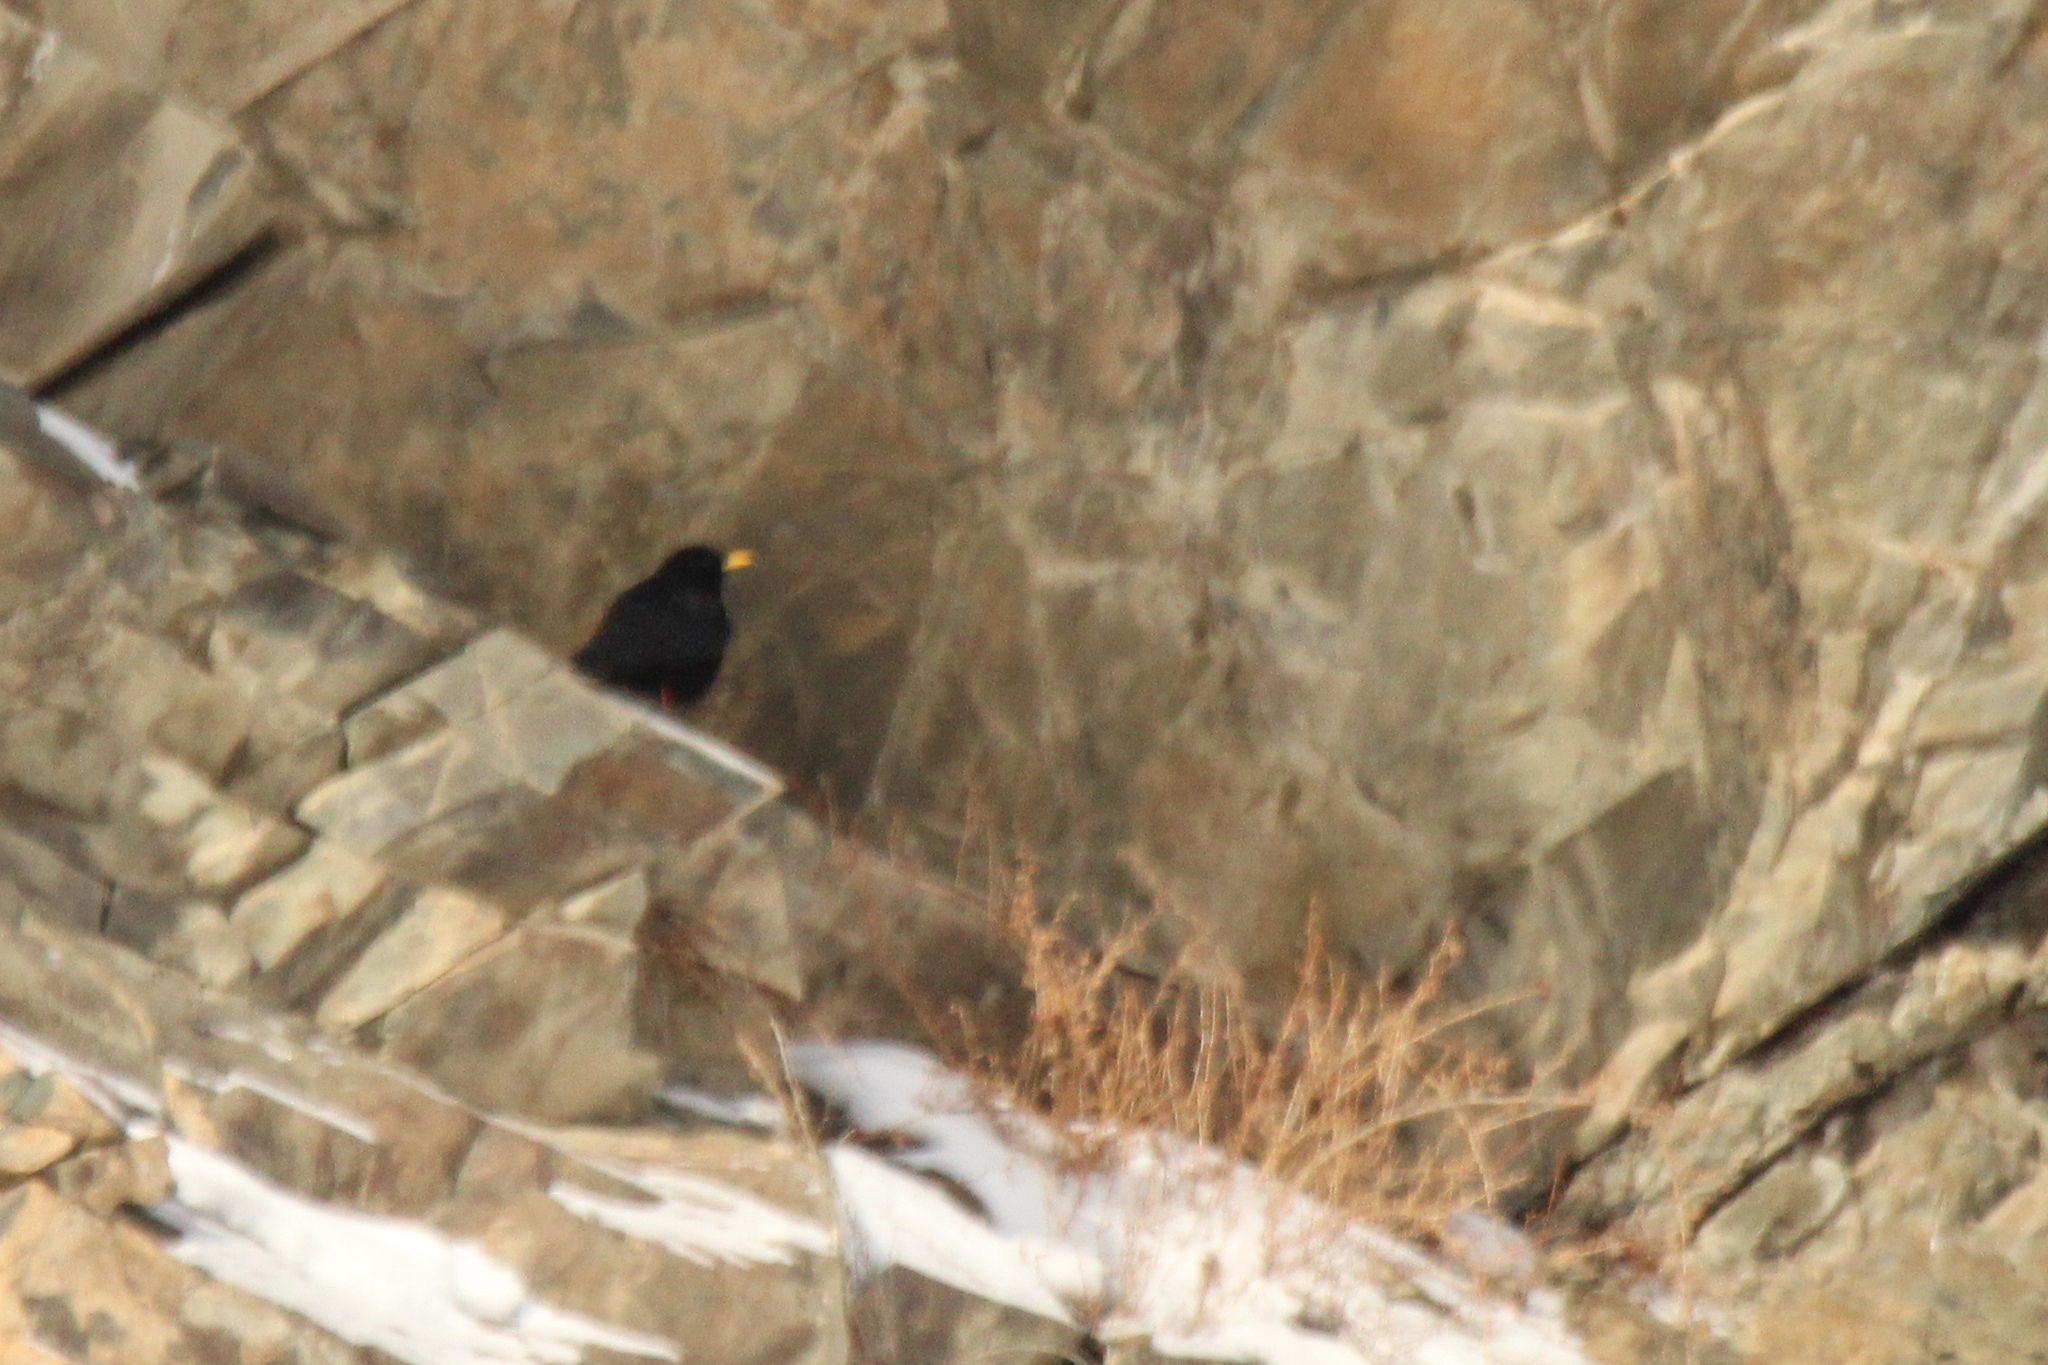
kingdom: Animalia
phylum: Chordata
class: Aves
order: Passeriformes
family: Corvidae
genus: Pyrrhocorax
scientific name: Pyrrhocorax graculus
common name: Alpine chough
